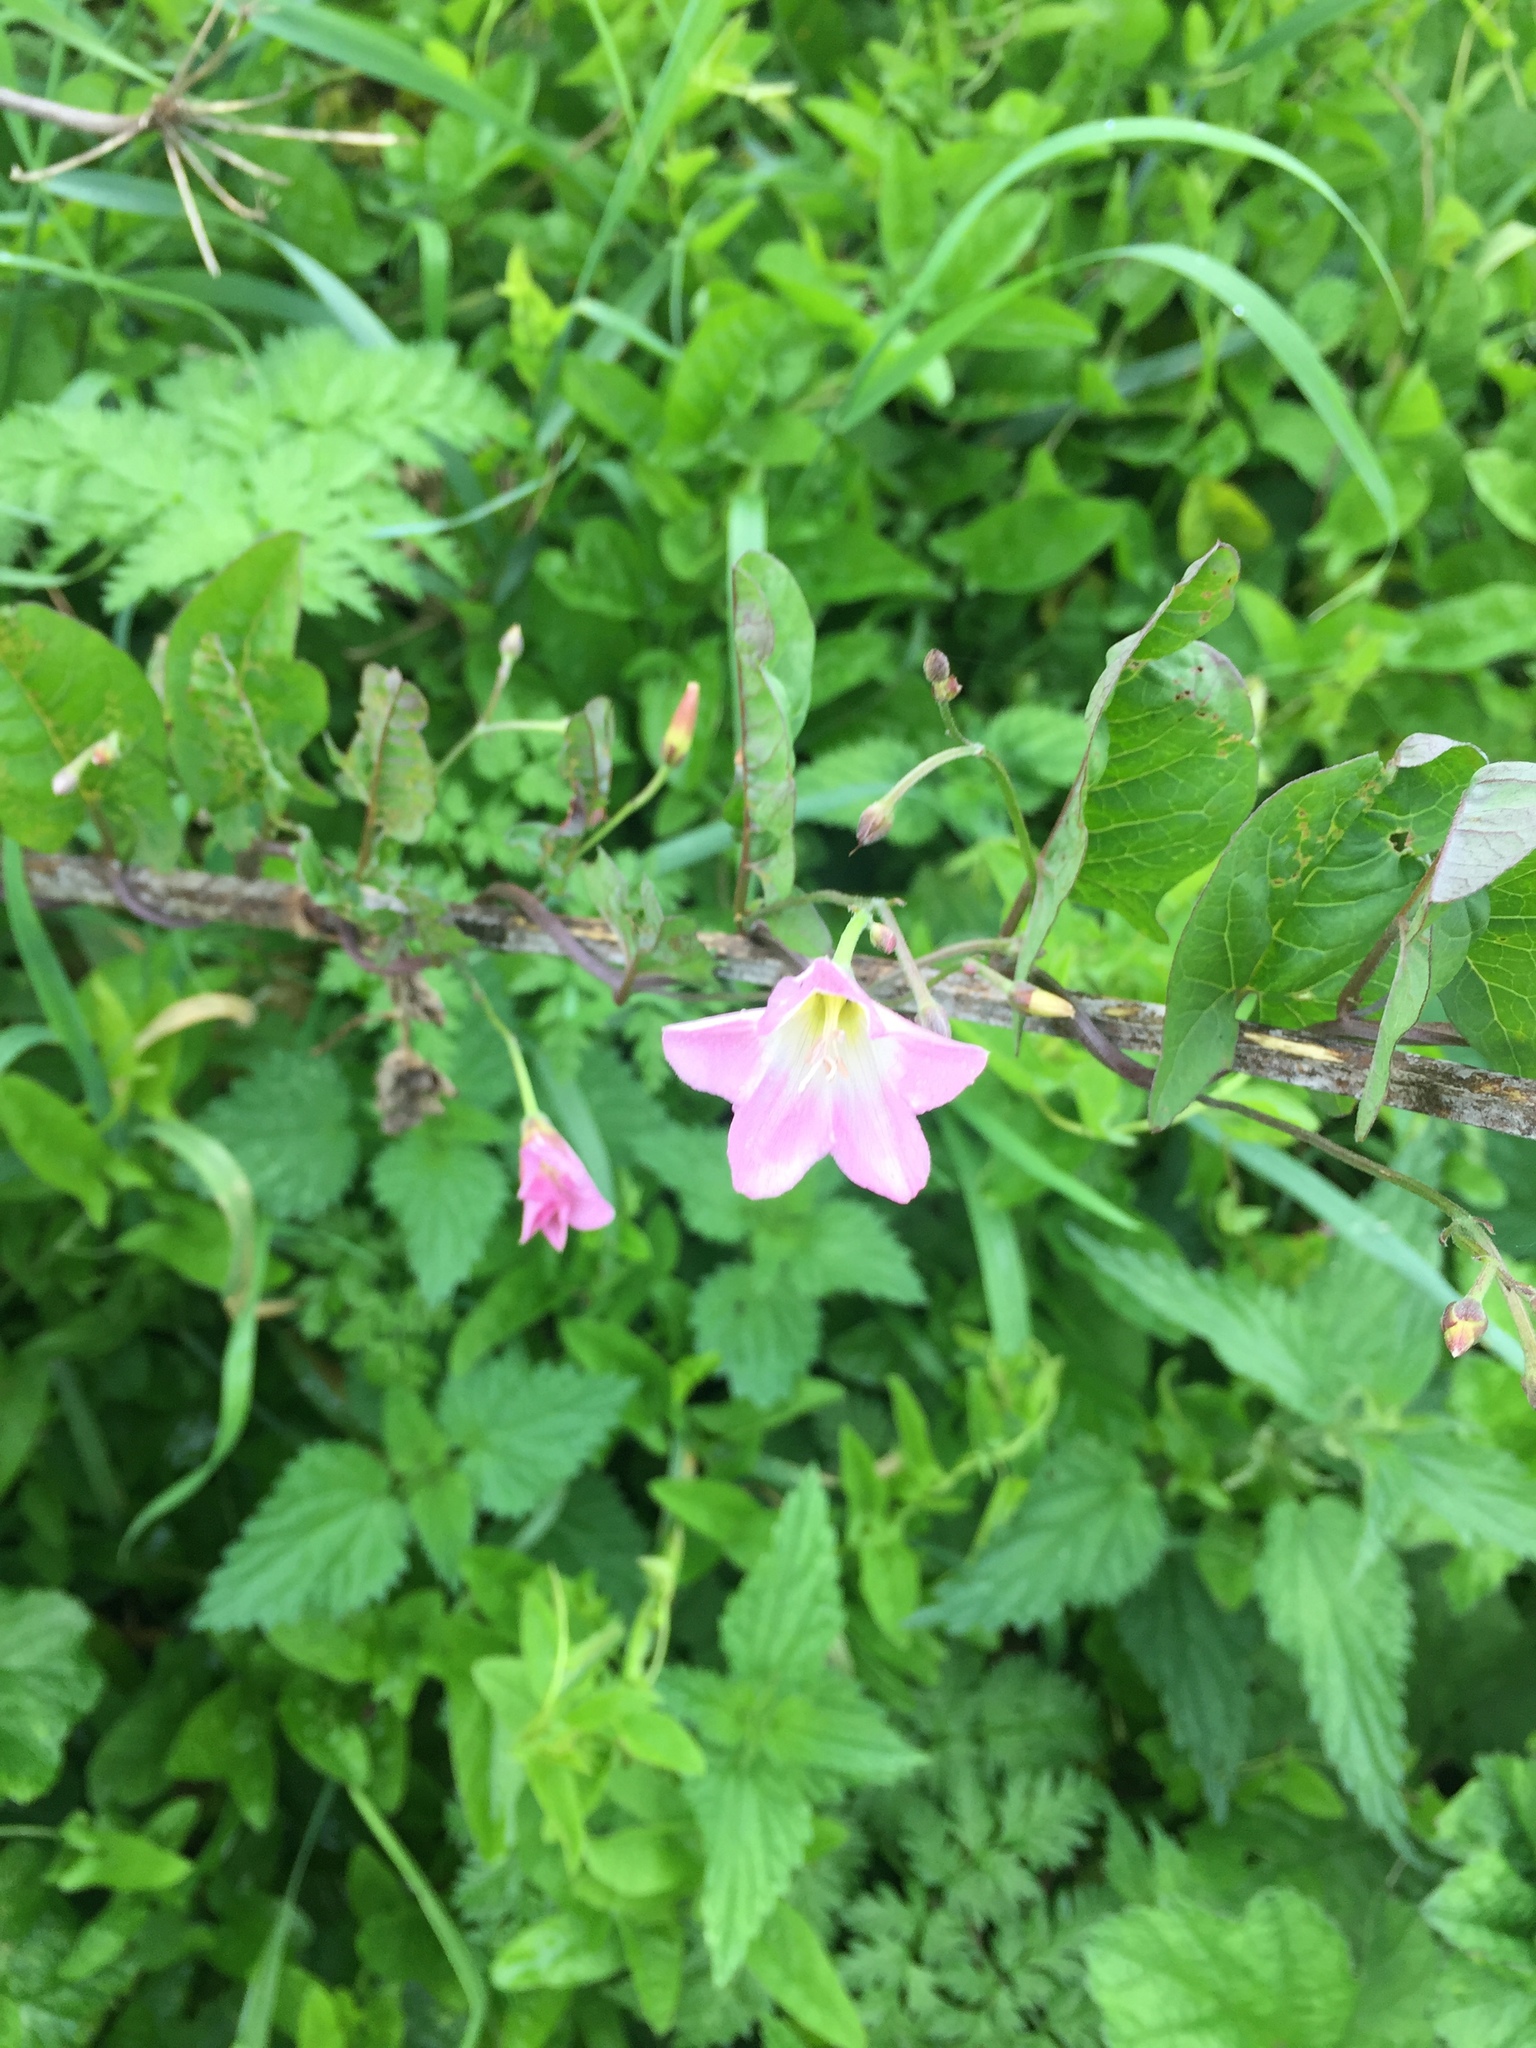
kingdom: Plantae
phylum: Tracheophyta
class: Magnoliopsida
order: Solanales
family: Convolvulaceae
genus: Convolvulus
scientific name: Convolvulus arvensis
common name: Field bindweed
